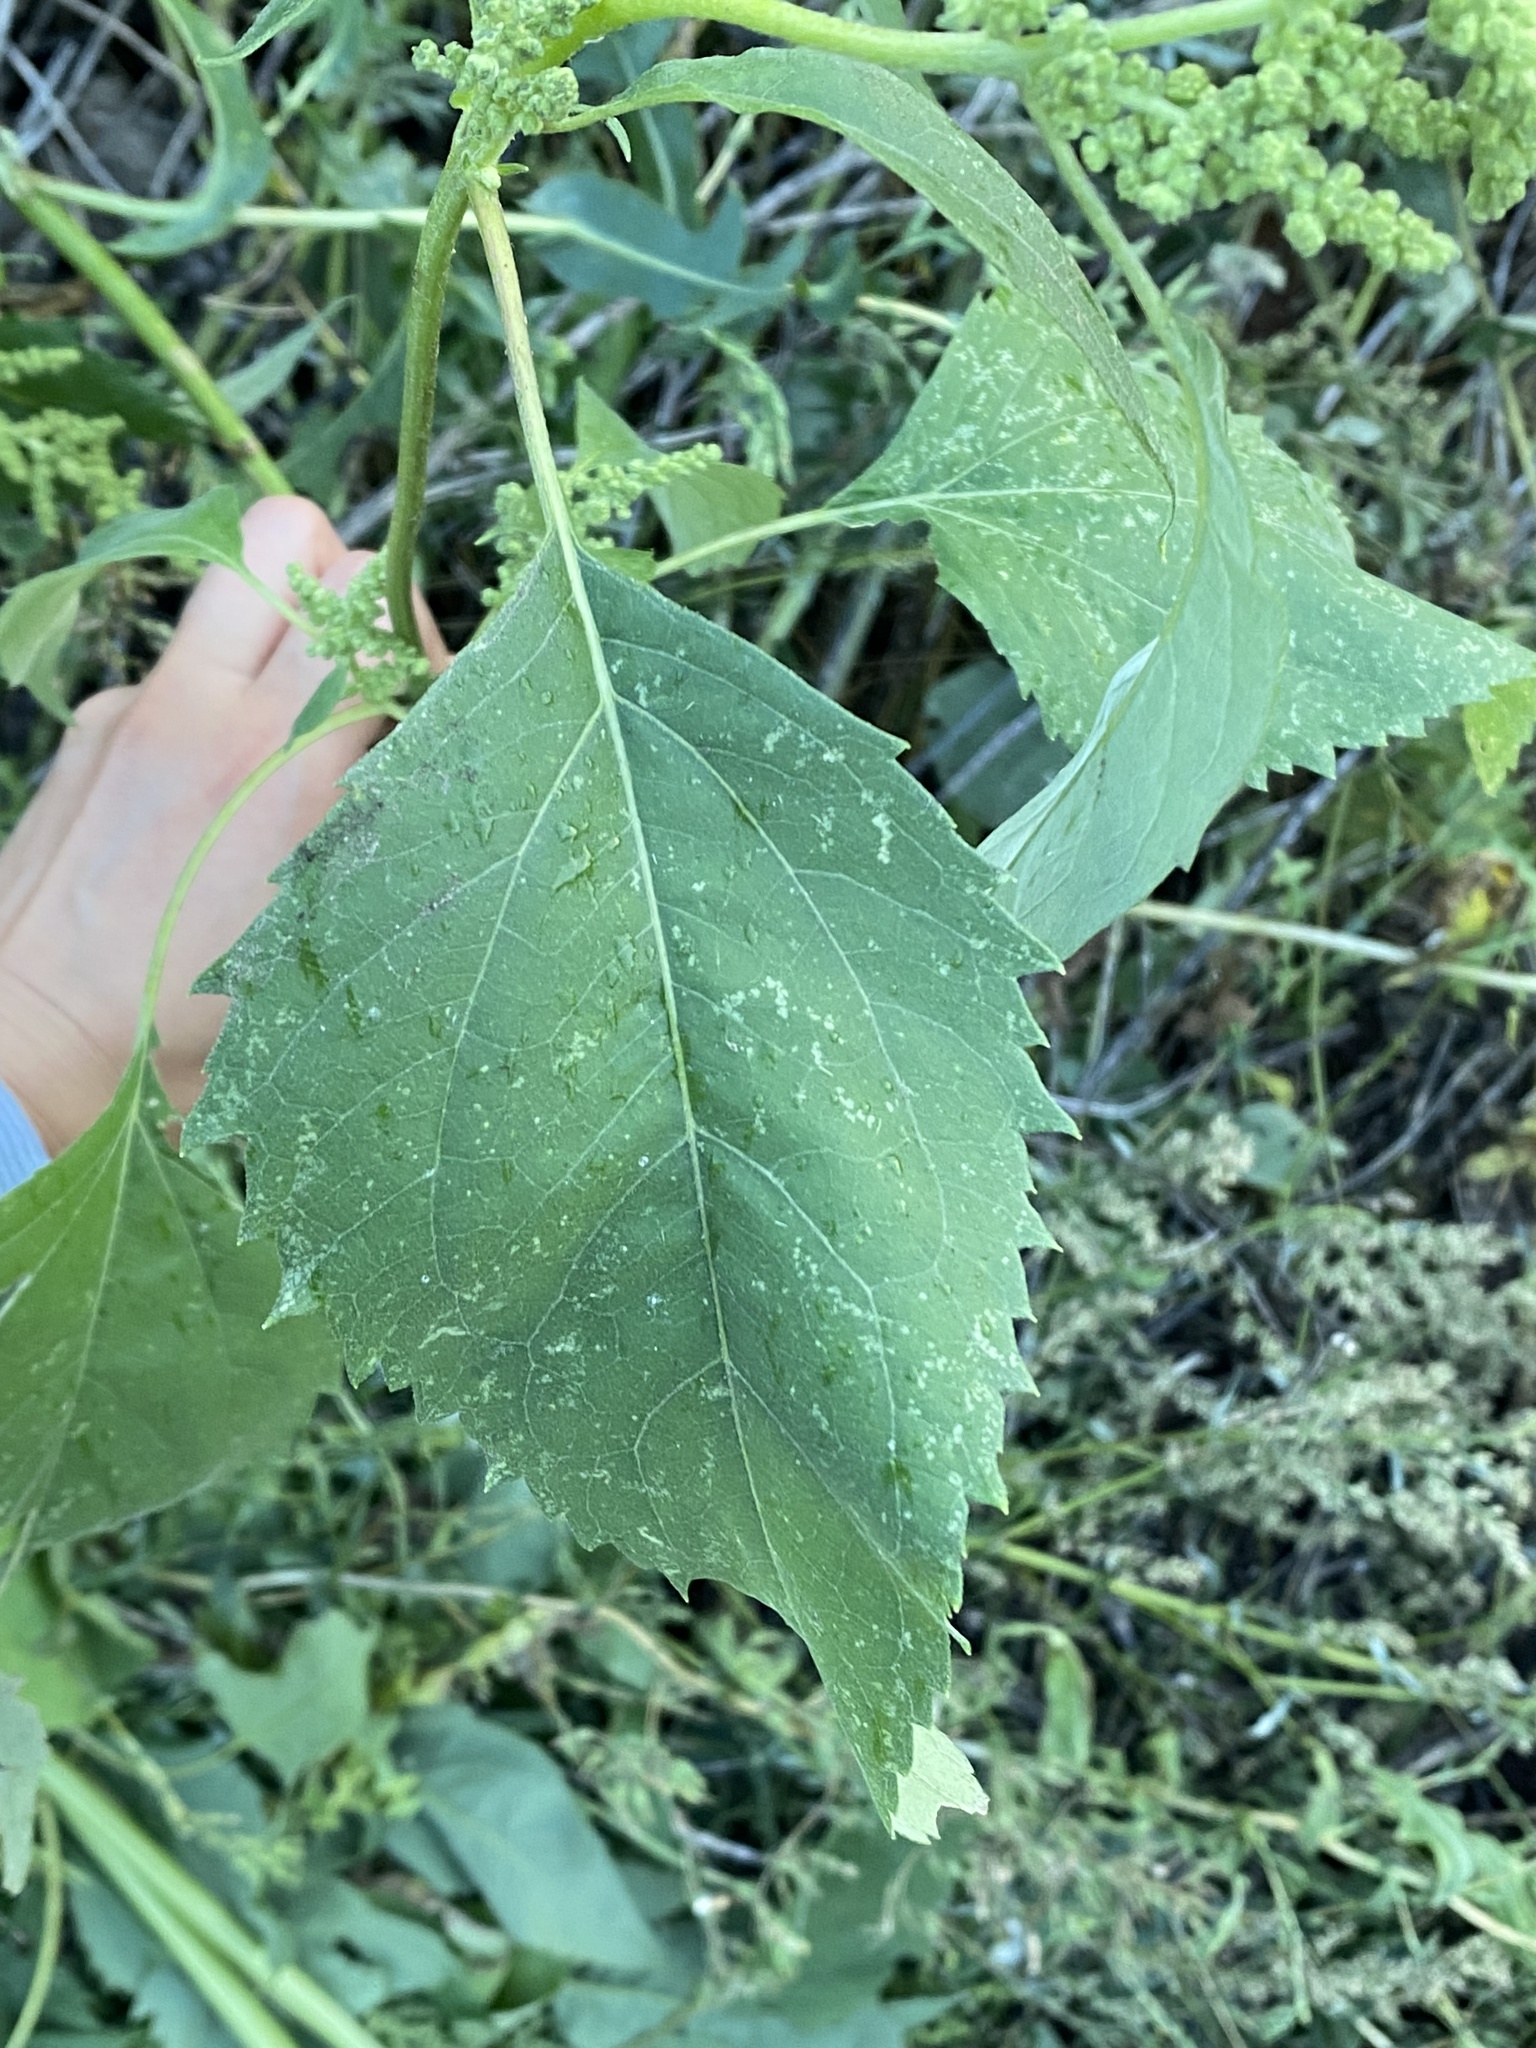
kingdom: Plantae
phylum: Tracheophyta
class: Magnoliopsida
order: Asterales
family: Asteraceae
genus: Cyclachaena
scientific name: Cyclachaena xanthiifolia
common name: Giant sumpweed
